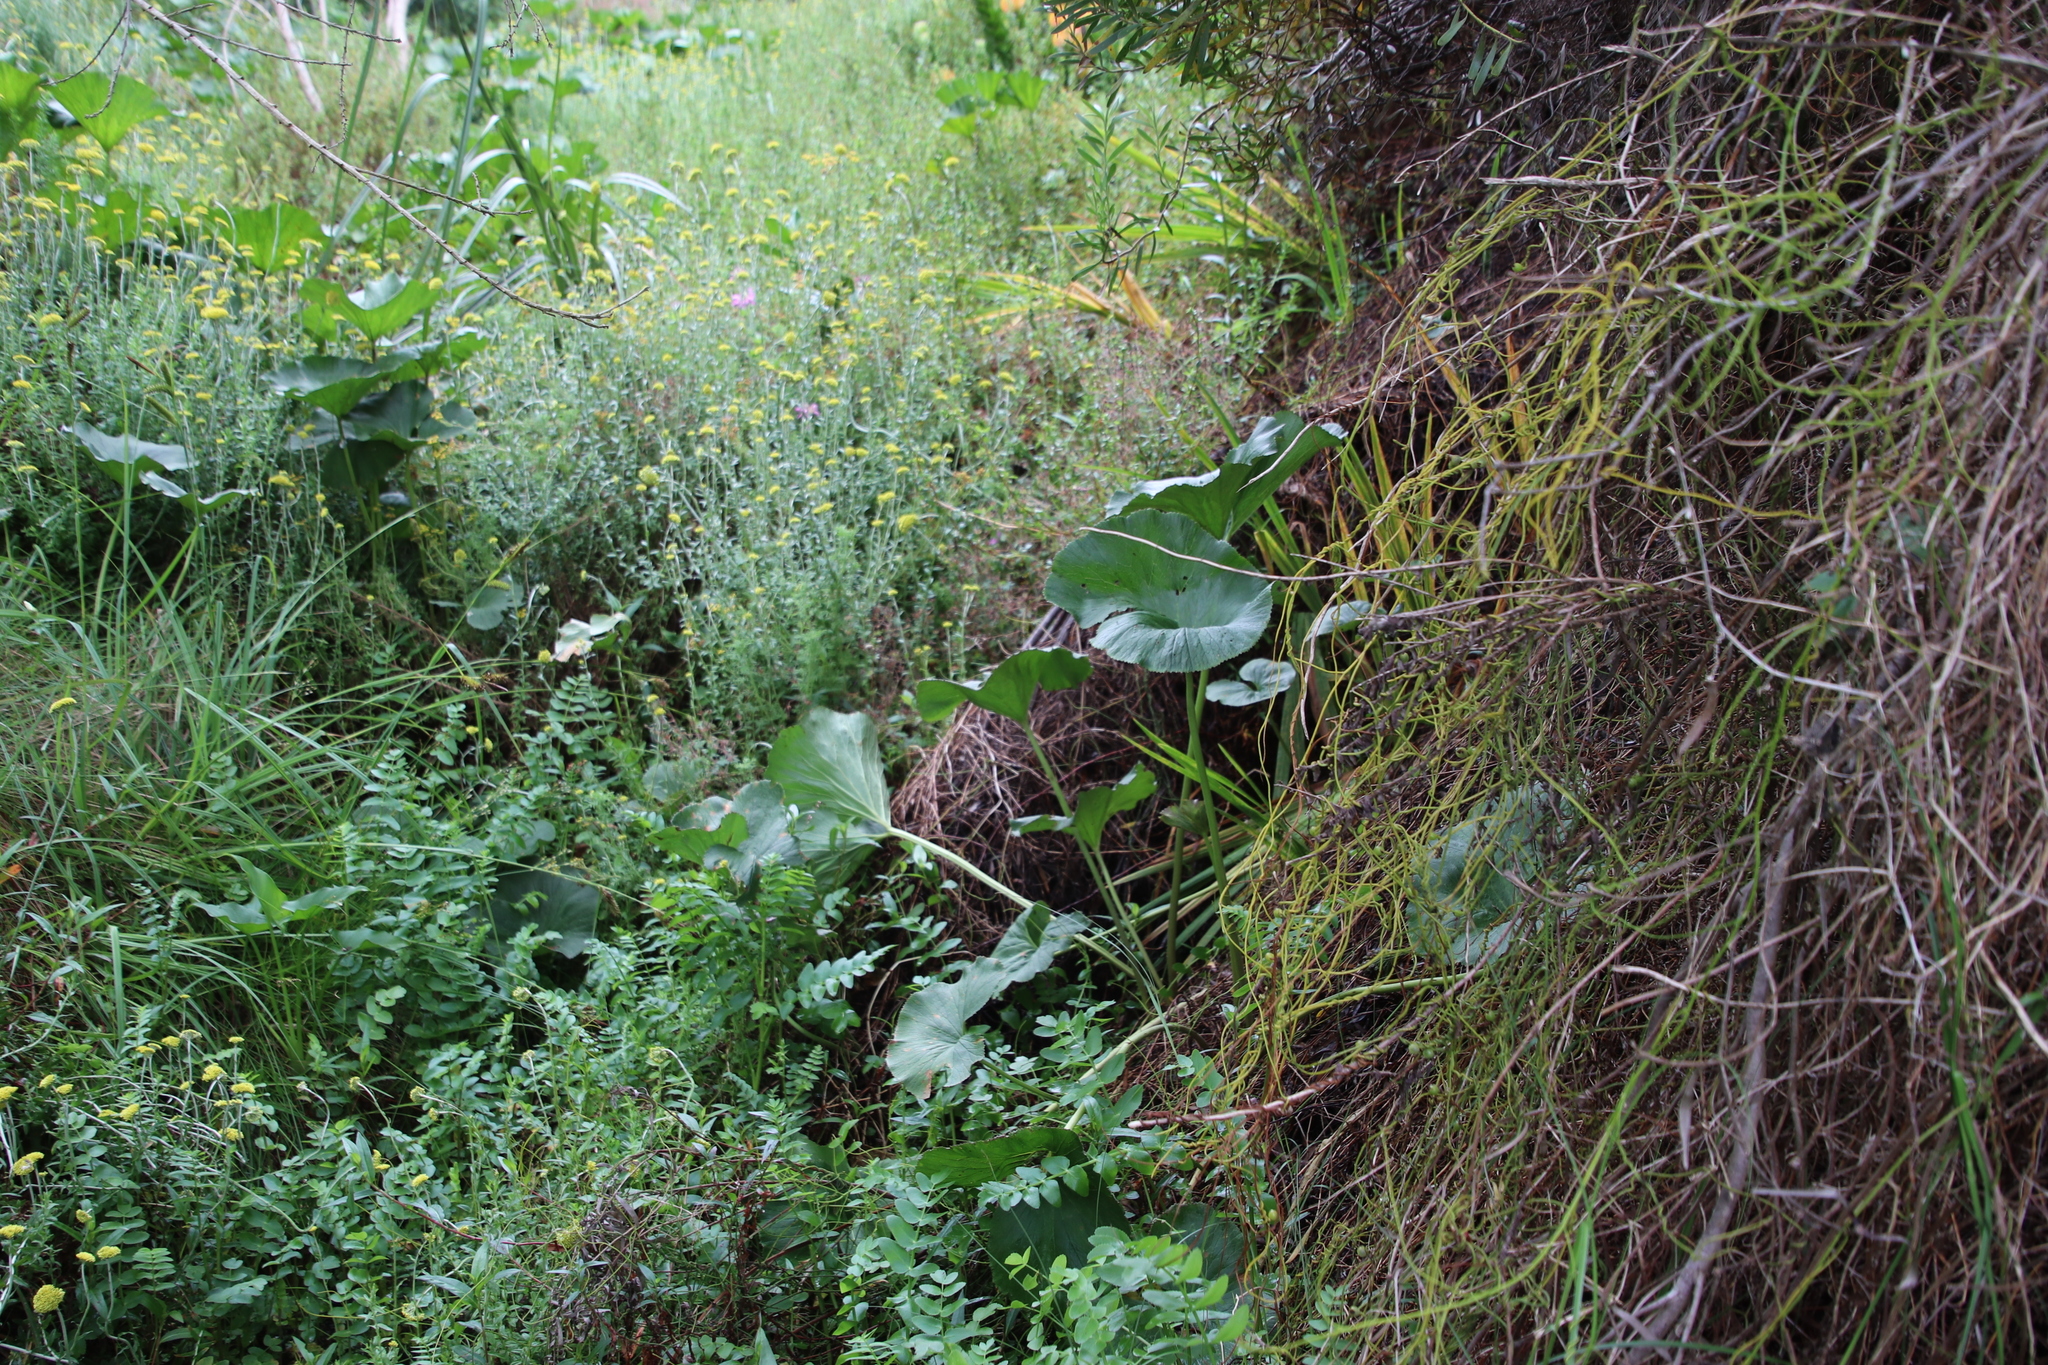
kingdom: Plantae
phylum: Tracheophyta
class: Magnoliopsida
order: Apiales
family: Apiaceae
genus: Berula
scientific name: Berula thunbergii
